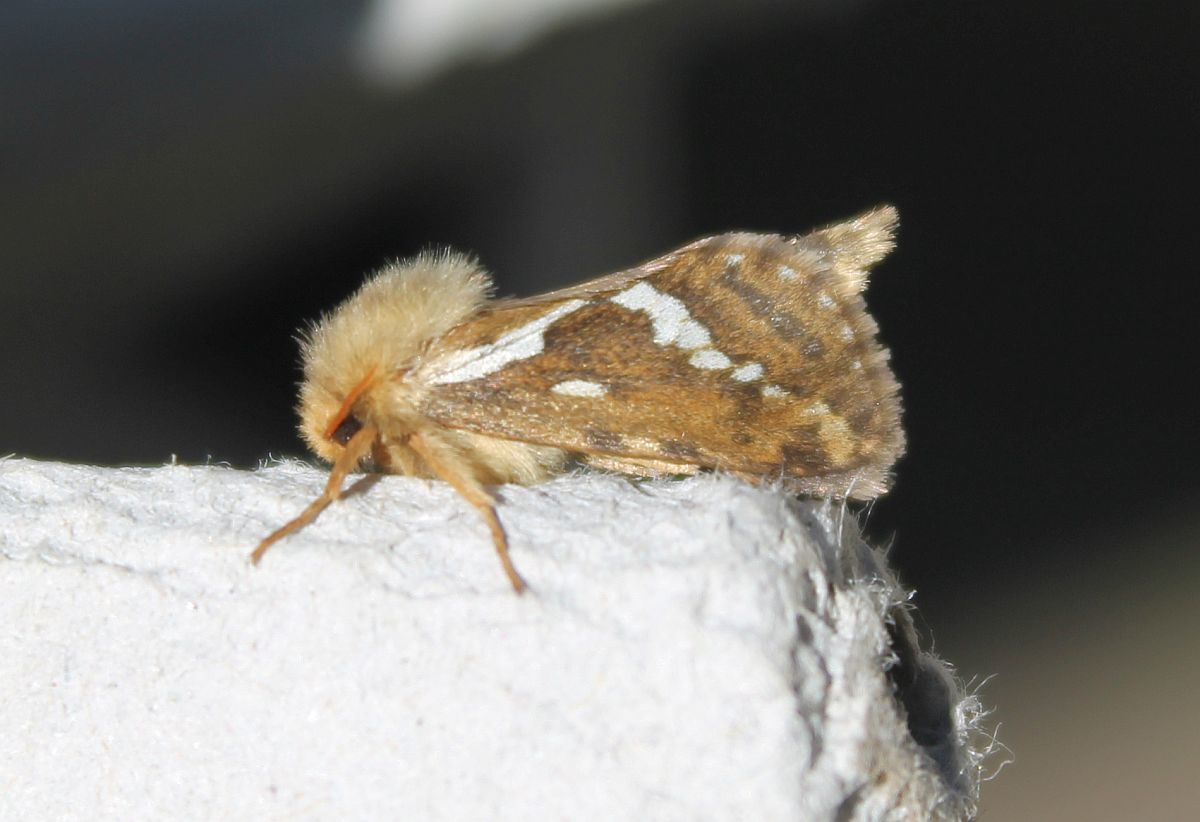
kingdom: Animalia
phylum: Arthropoda
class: Insecta
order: Lepidoptera
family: Hepialidae
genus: Korscheltellus
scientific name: Korscheltellus lupulina
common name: Common swift
